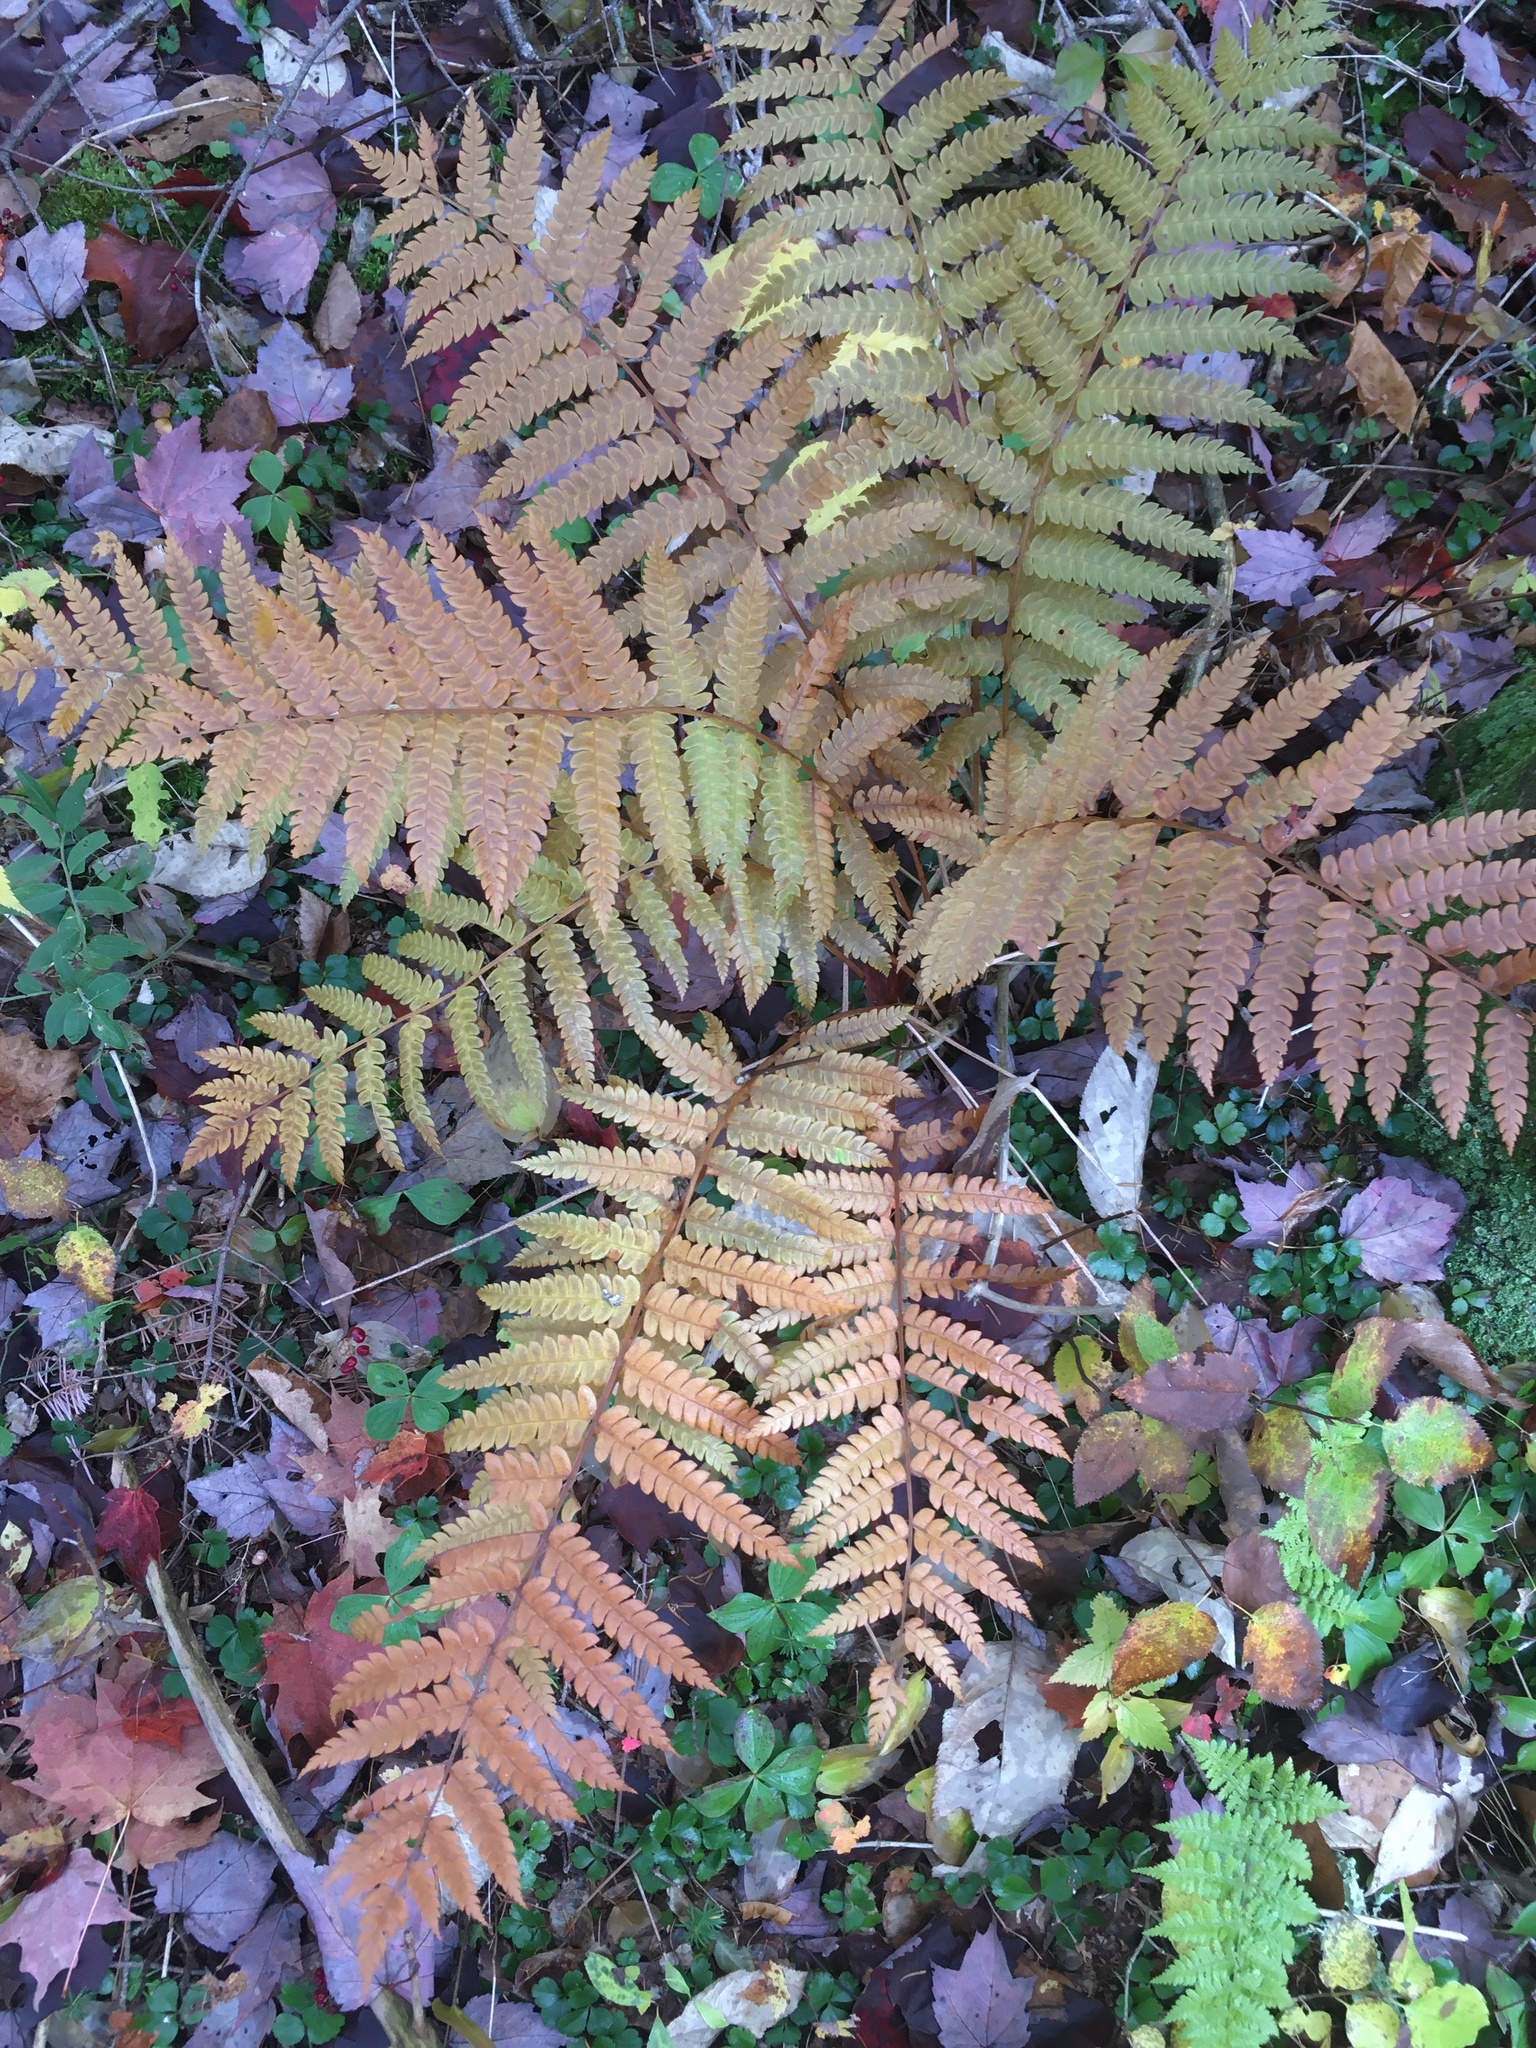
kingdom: Plantae
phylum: Tracheophyta
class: Polypodiopsida
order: Osmundales
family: Osmundaceae
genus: Osmundastrum
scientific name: Osmundastrum cinnamomeum
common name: Cinnamon fern
